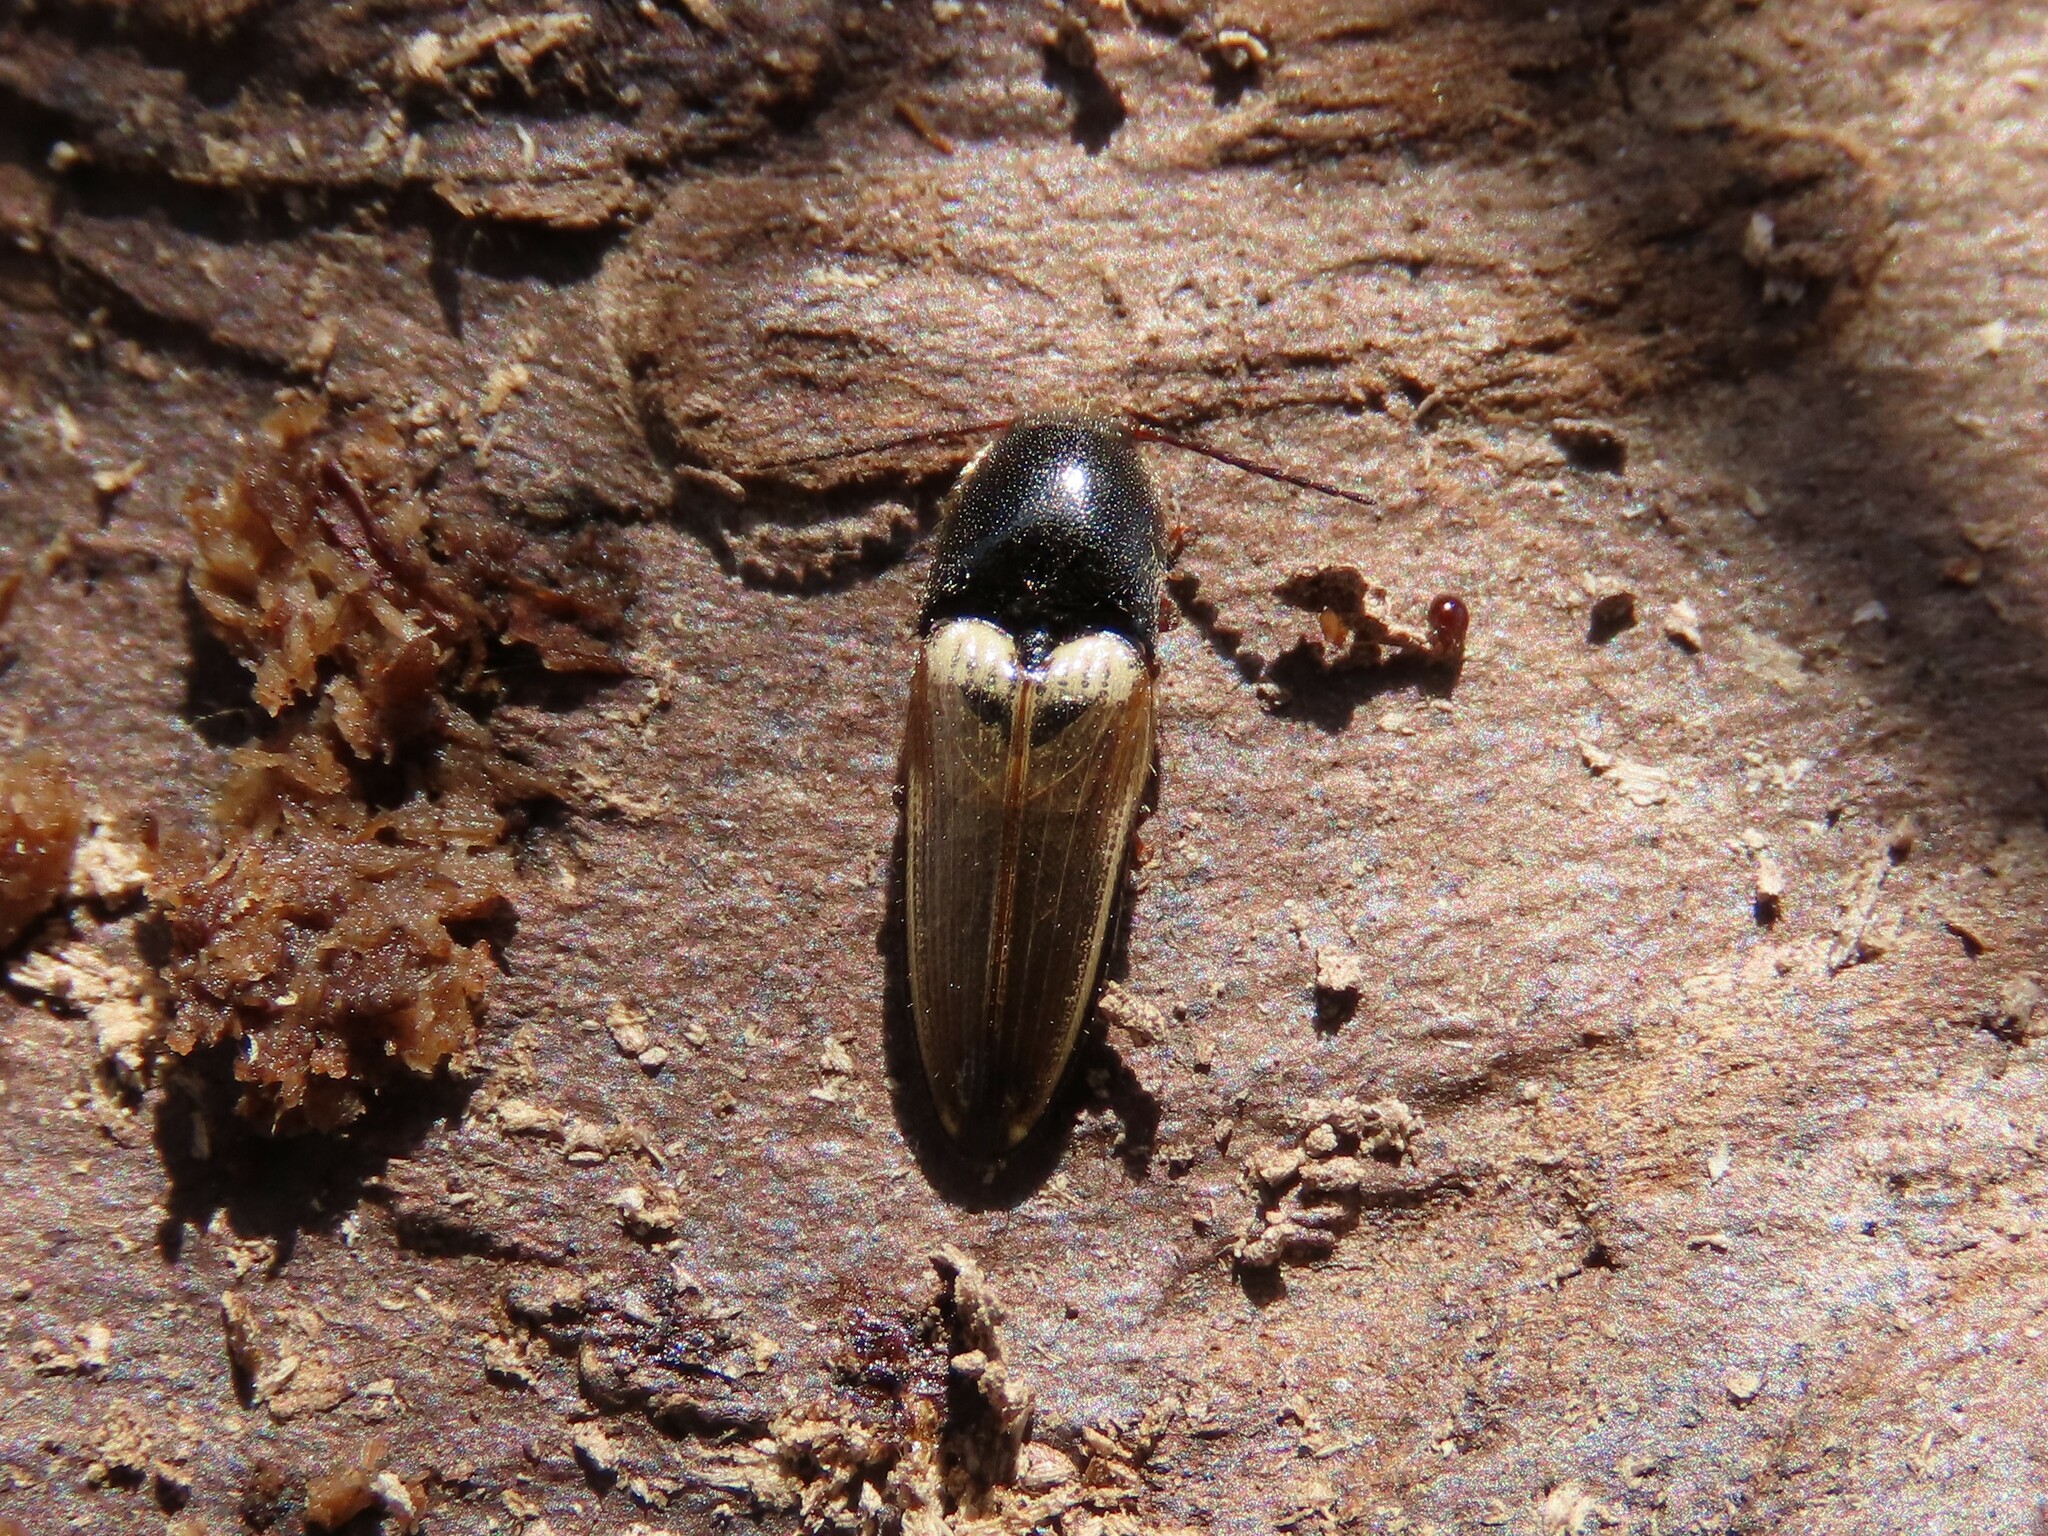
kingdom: Animalia
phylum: Arthropoda
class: Insecta
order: Coleoptera
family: Elateridae
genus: Ampedus
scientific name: Ampedus nigricollis
